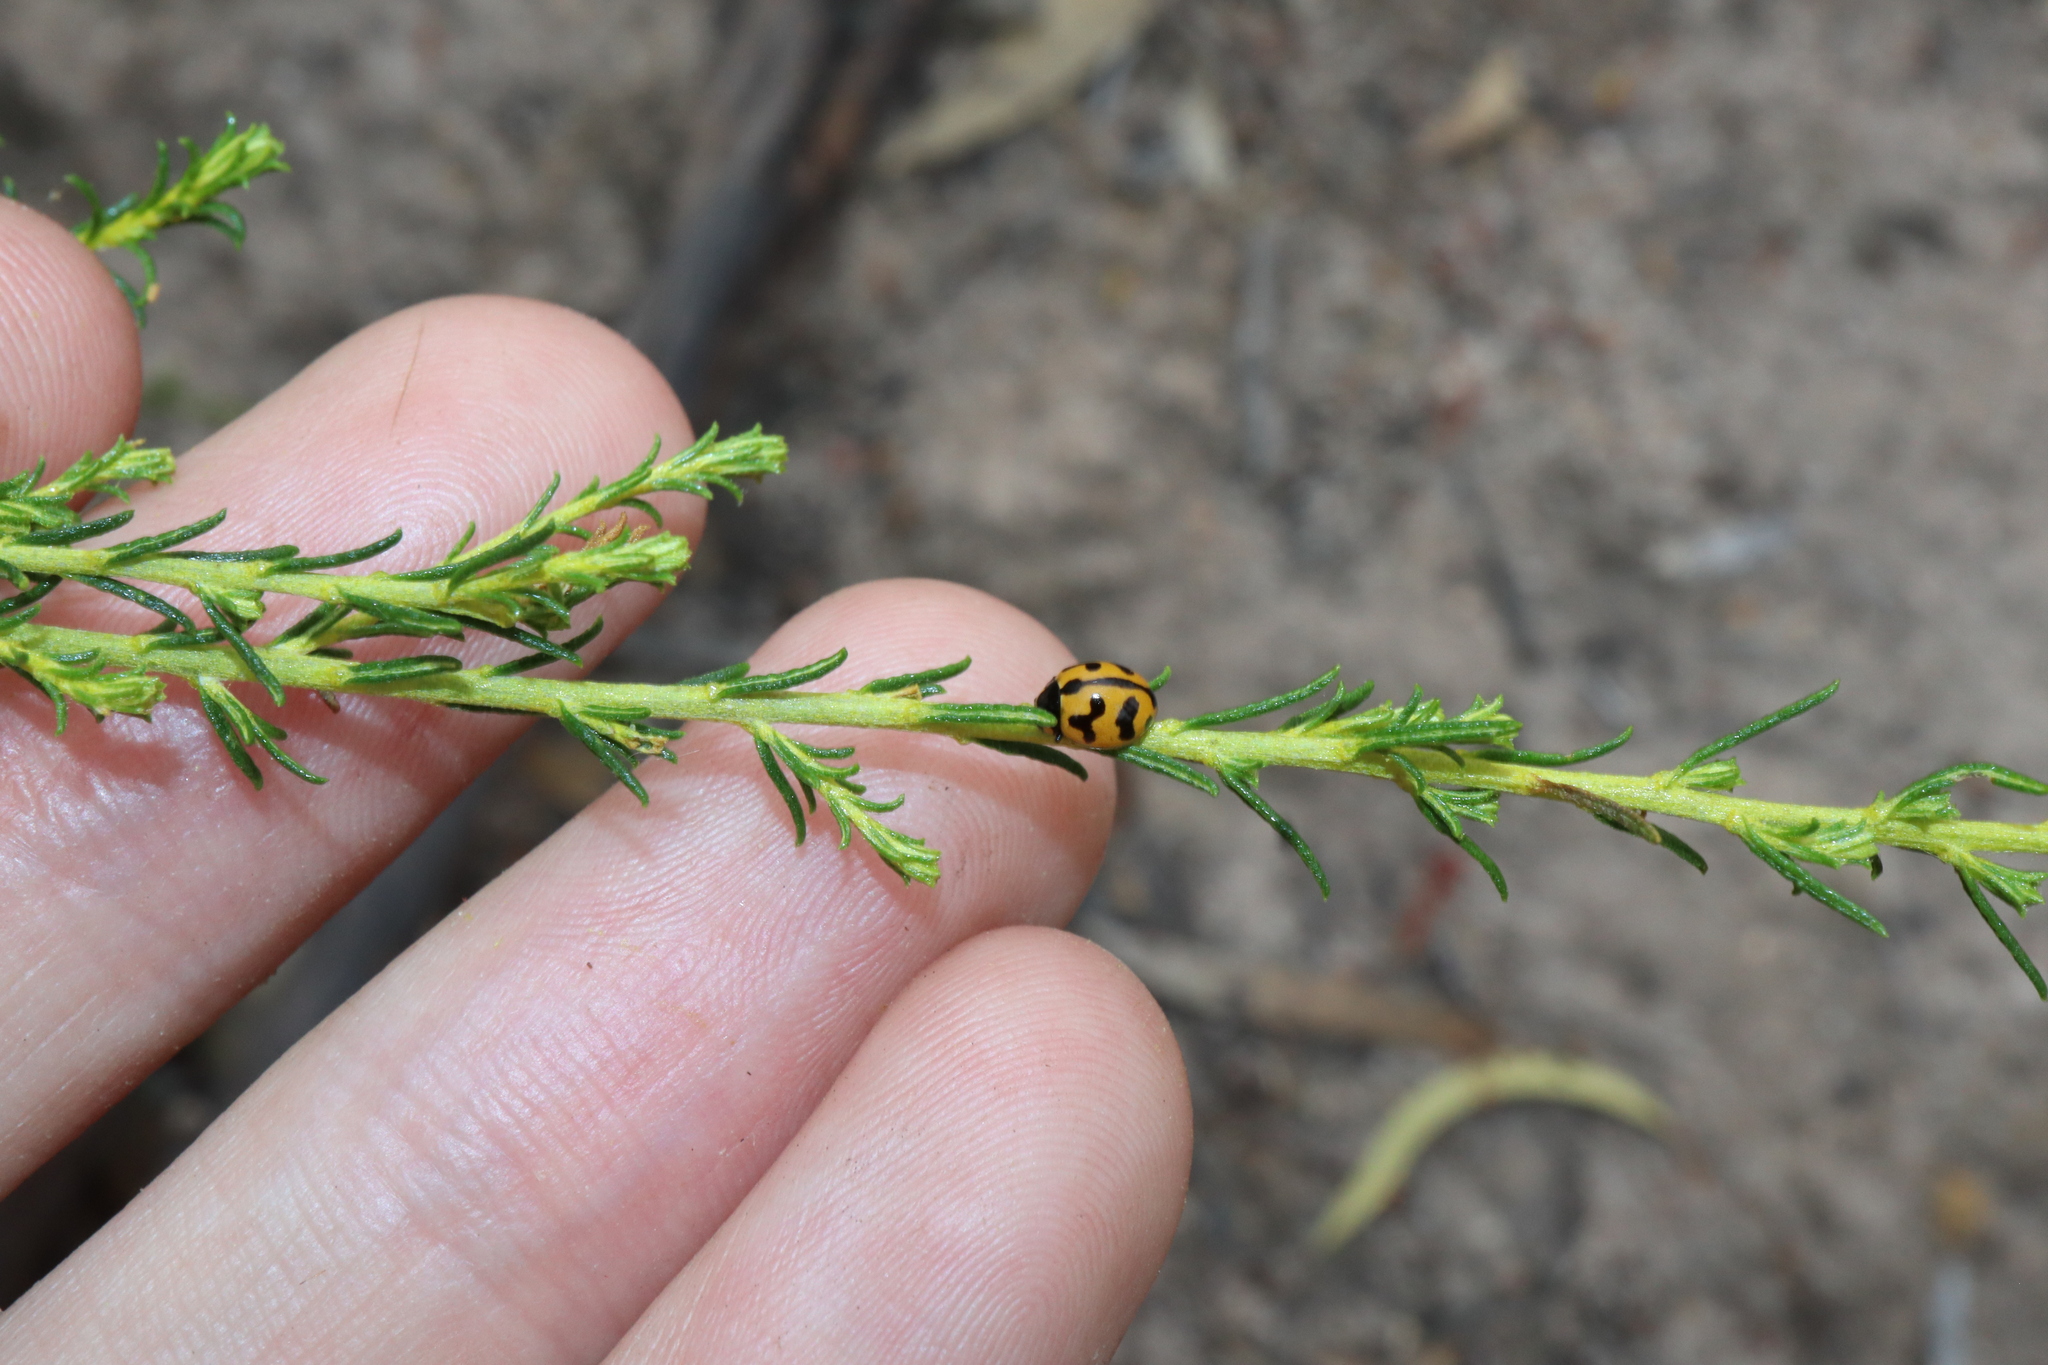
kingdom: Animalia
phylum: Arthropoda
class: Insecta
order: Coleoptera
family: Coccinellidae
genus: Coccinella
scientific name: Coccinella transversalis
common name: Transverse lady beetle
